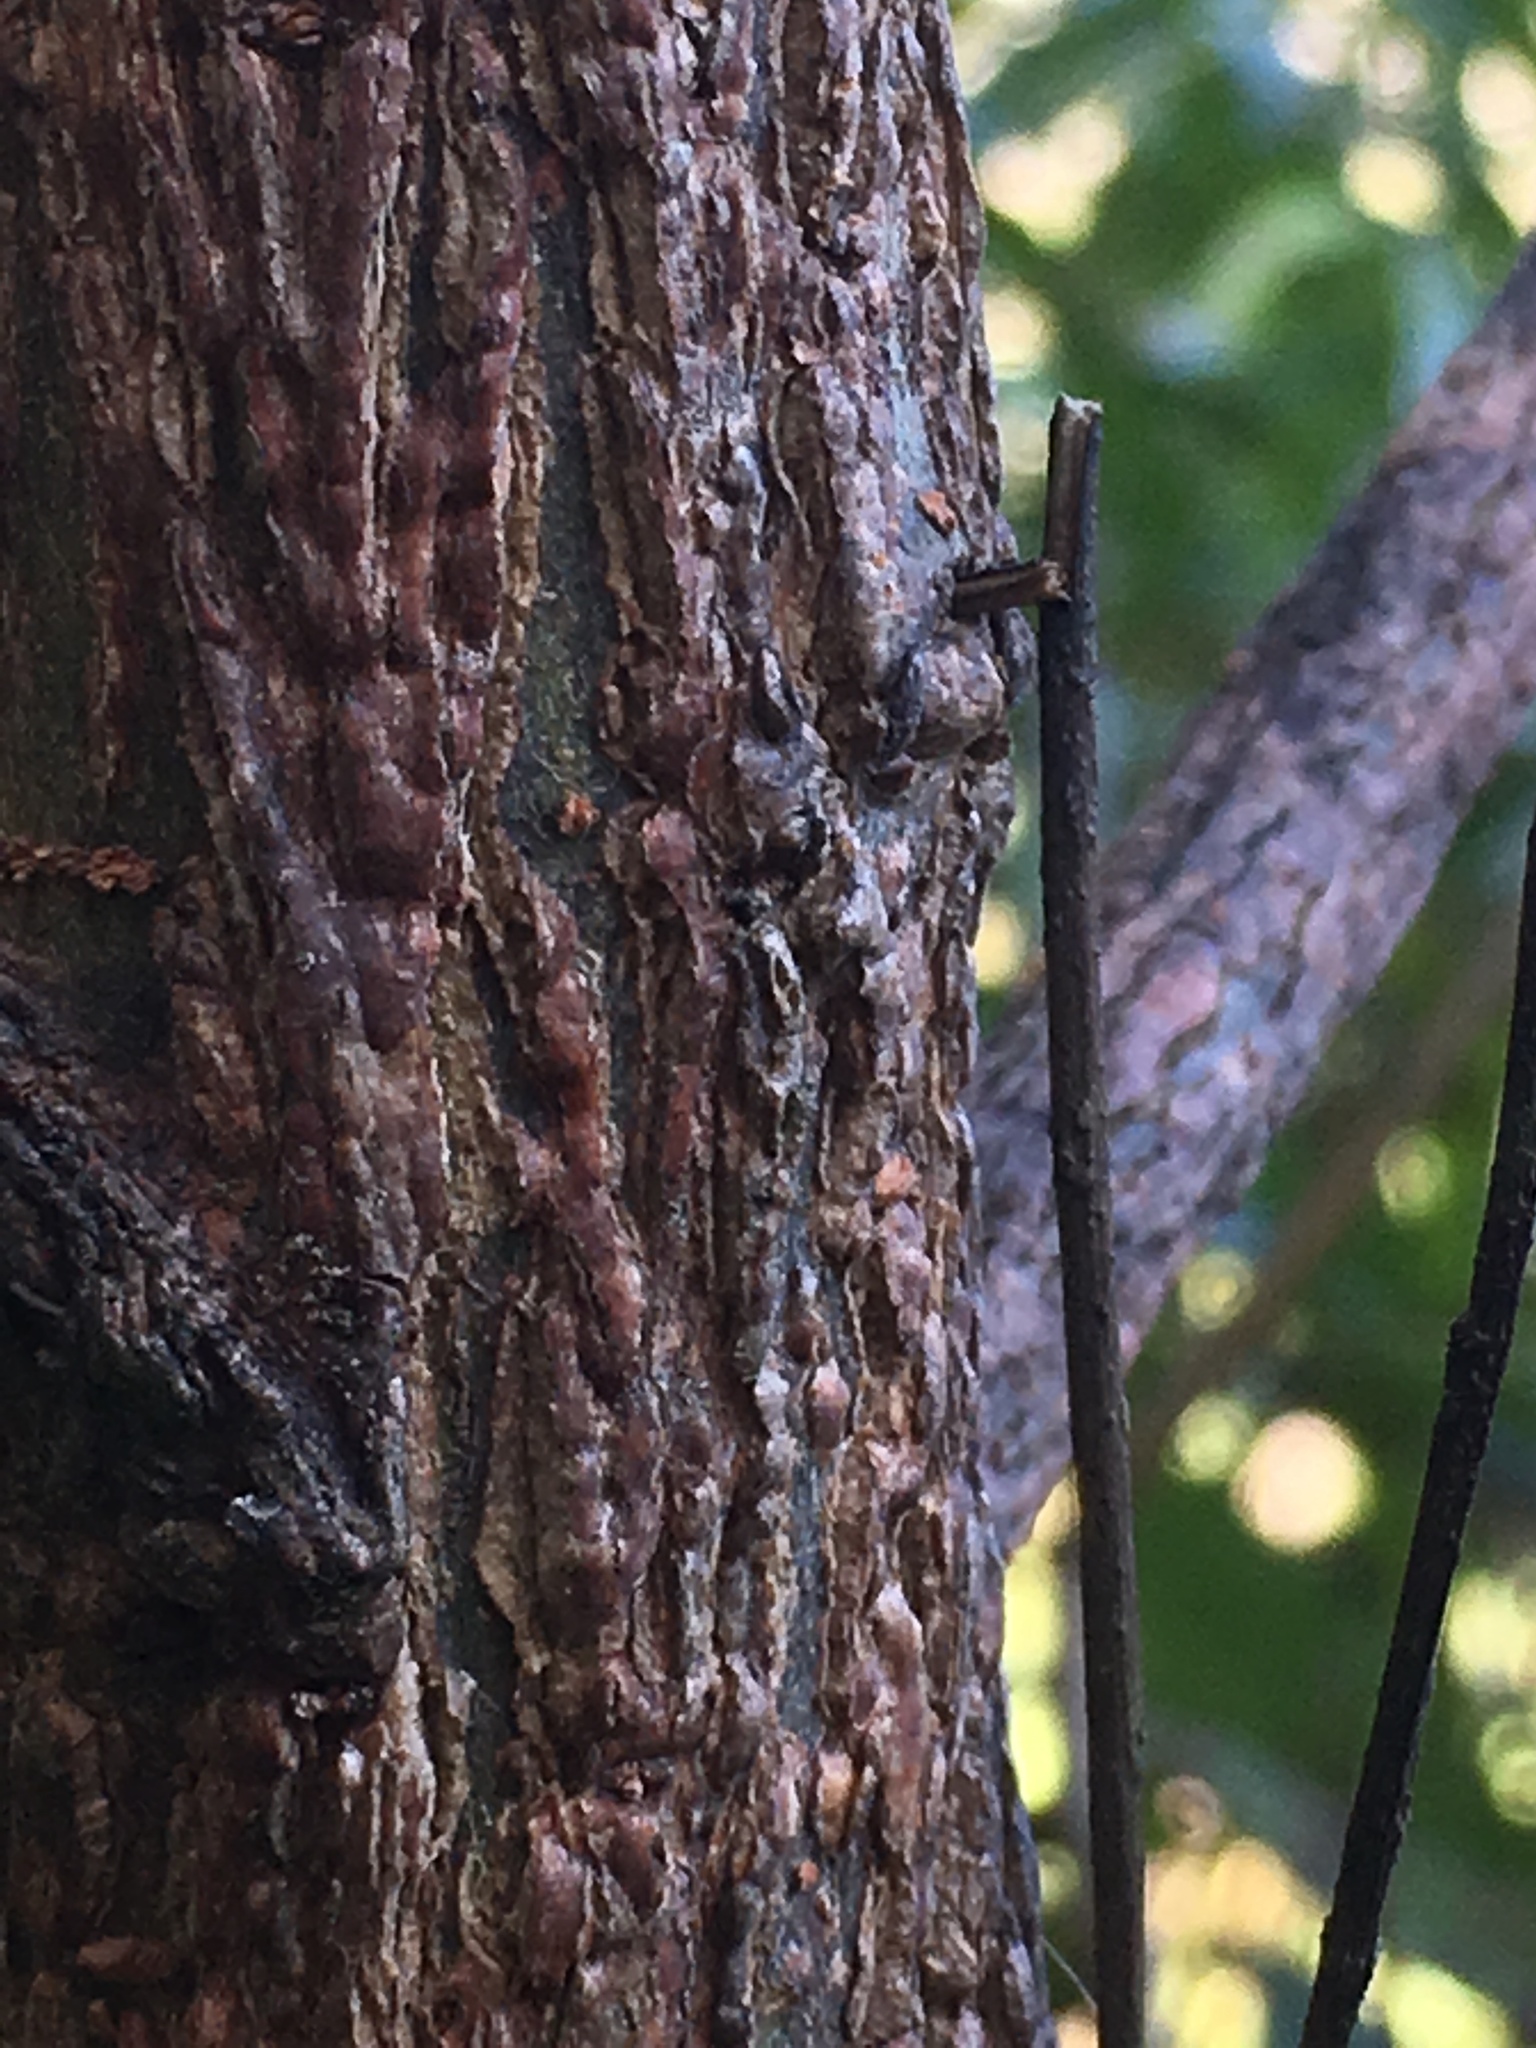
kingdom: Plantae
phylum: Tracheophyta
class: Magnoliopsida
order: Malpighiales
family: Salicaceae
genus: Salix
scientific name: Salix nigra
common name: Black willow
